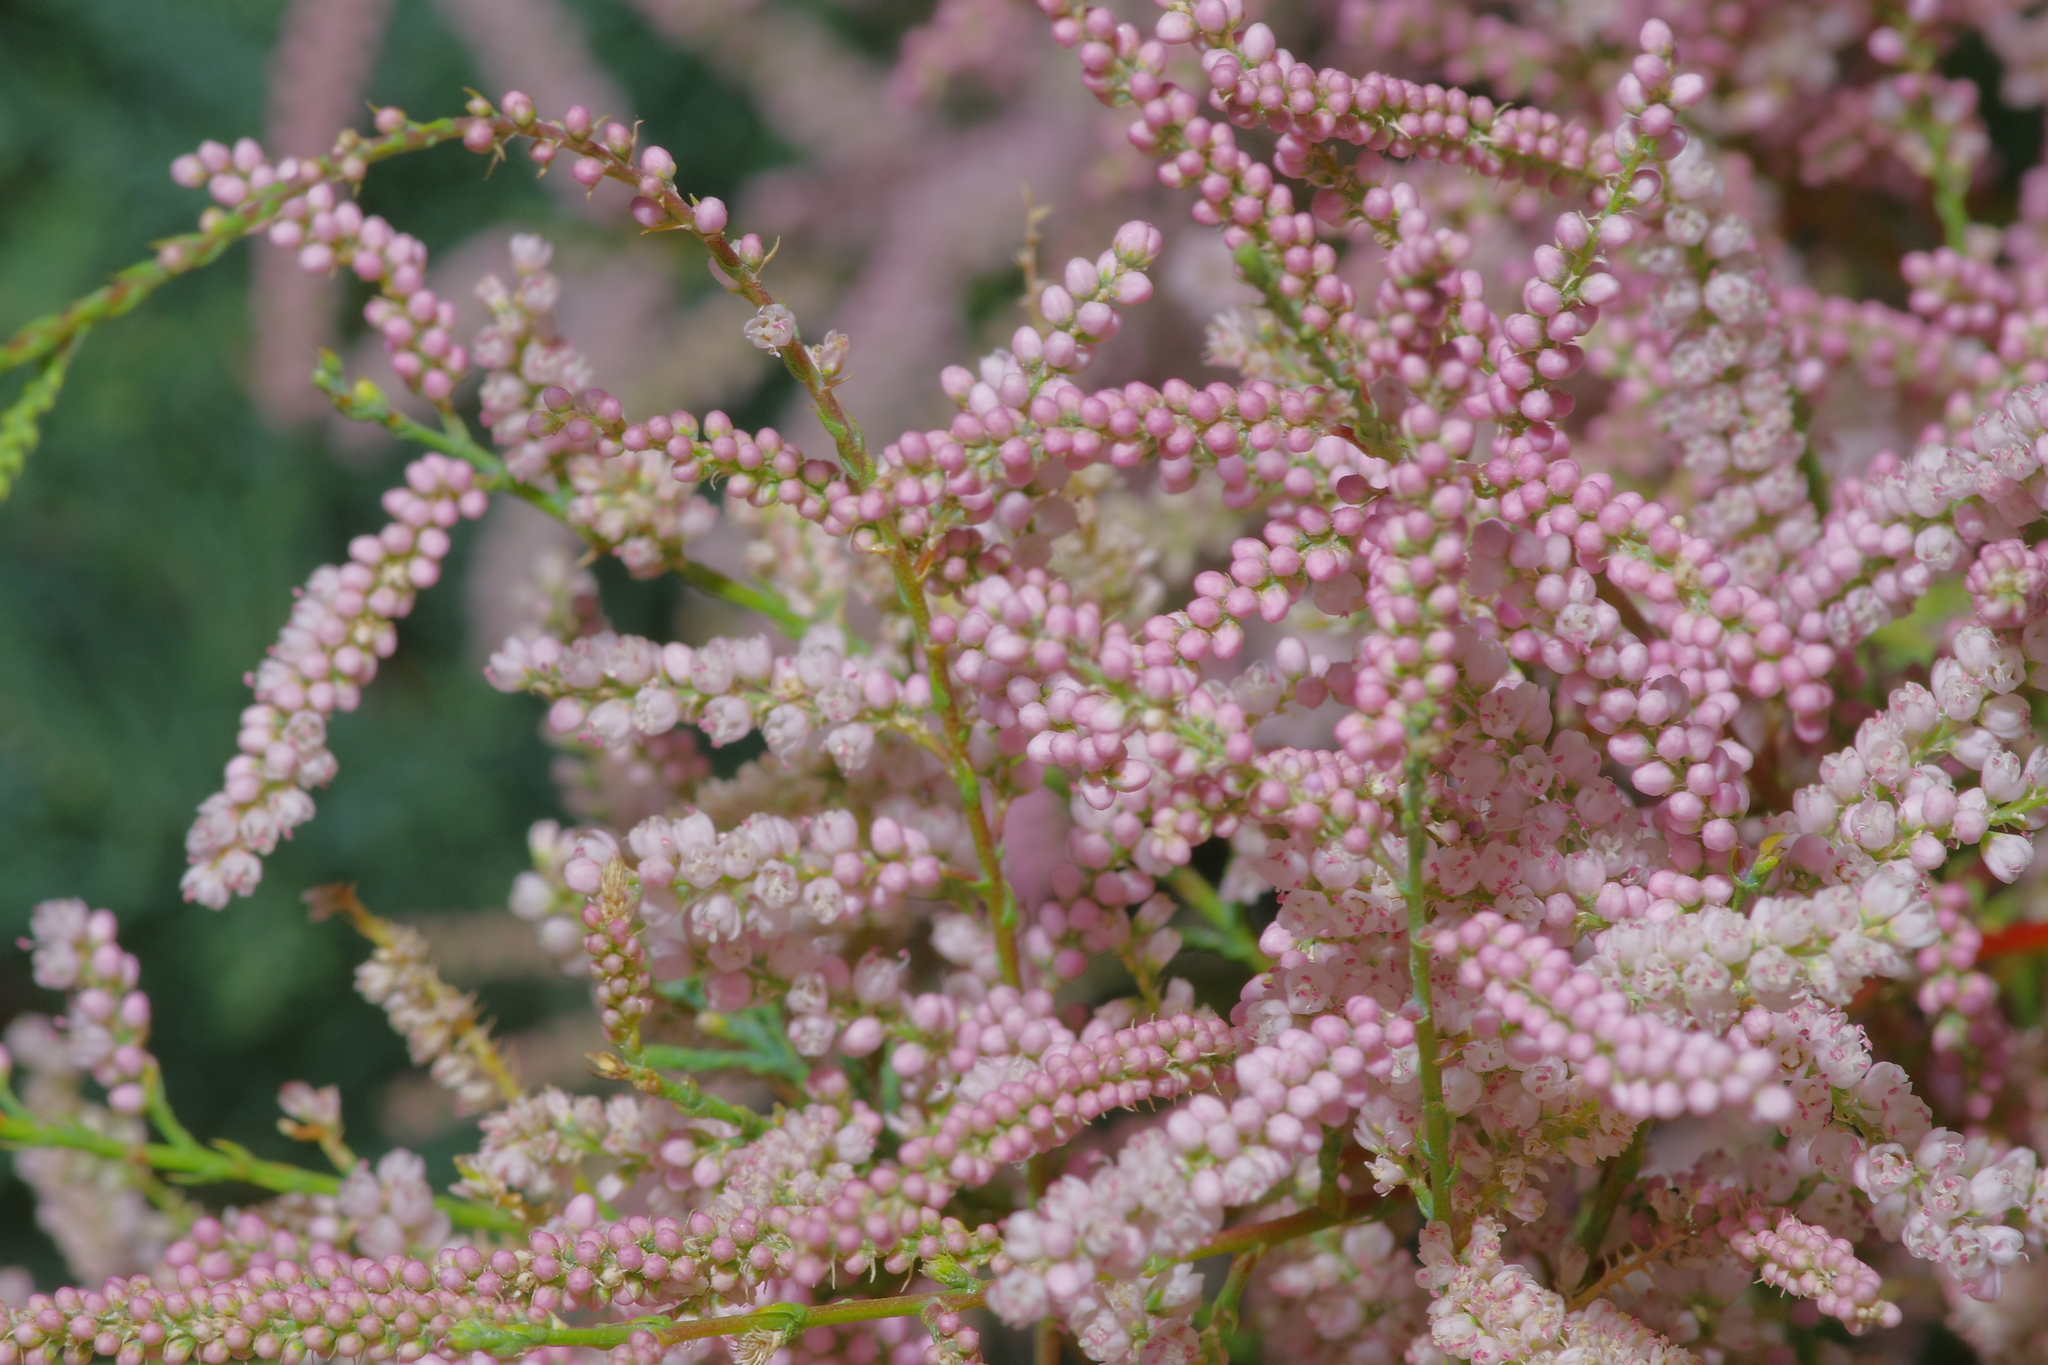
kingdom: Plantae
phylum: Tracheophyta
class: Magnoliopsida
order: Caryophyllales
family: Tamaricaceae
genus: Tamarix
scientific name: Tamarix
